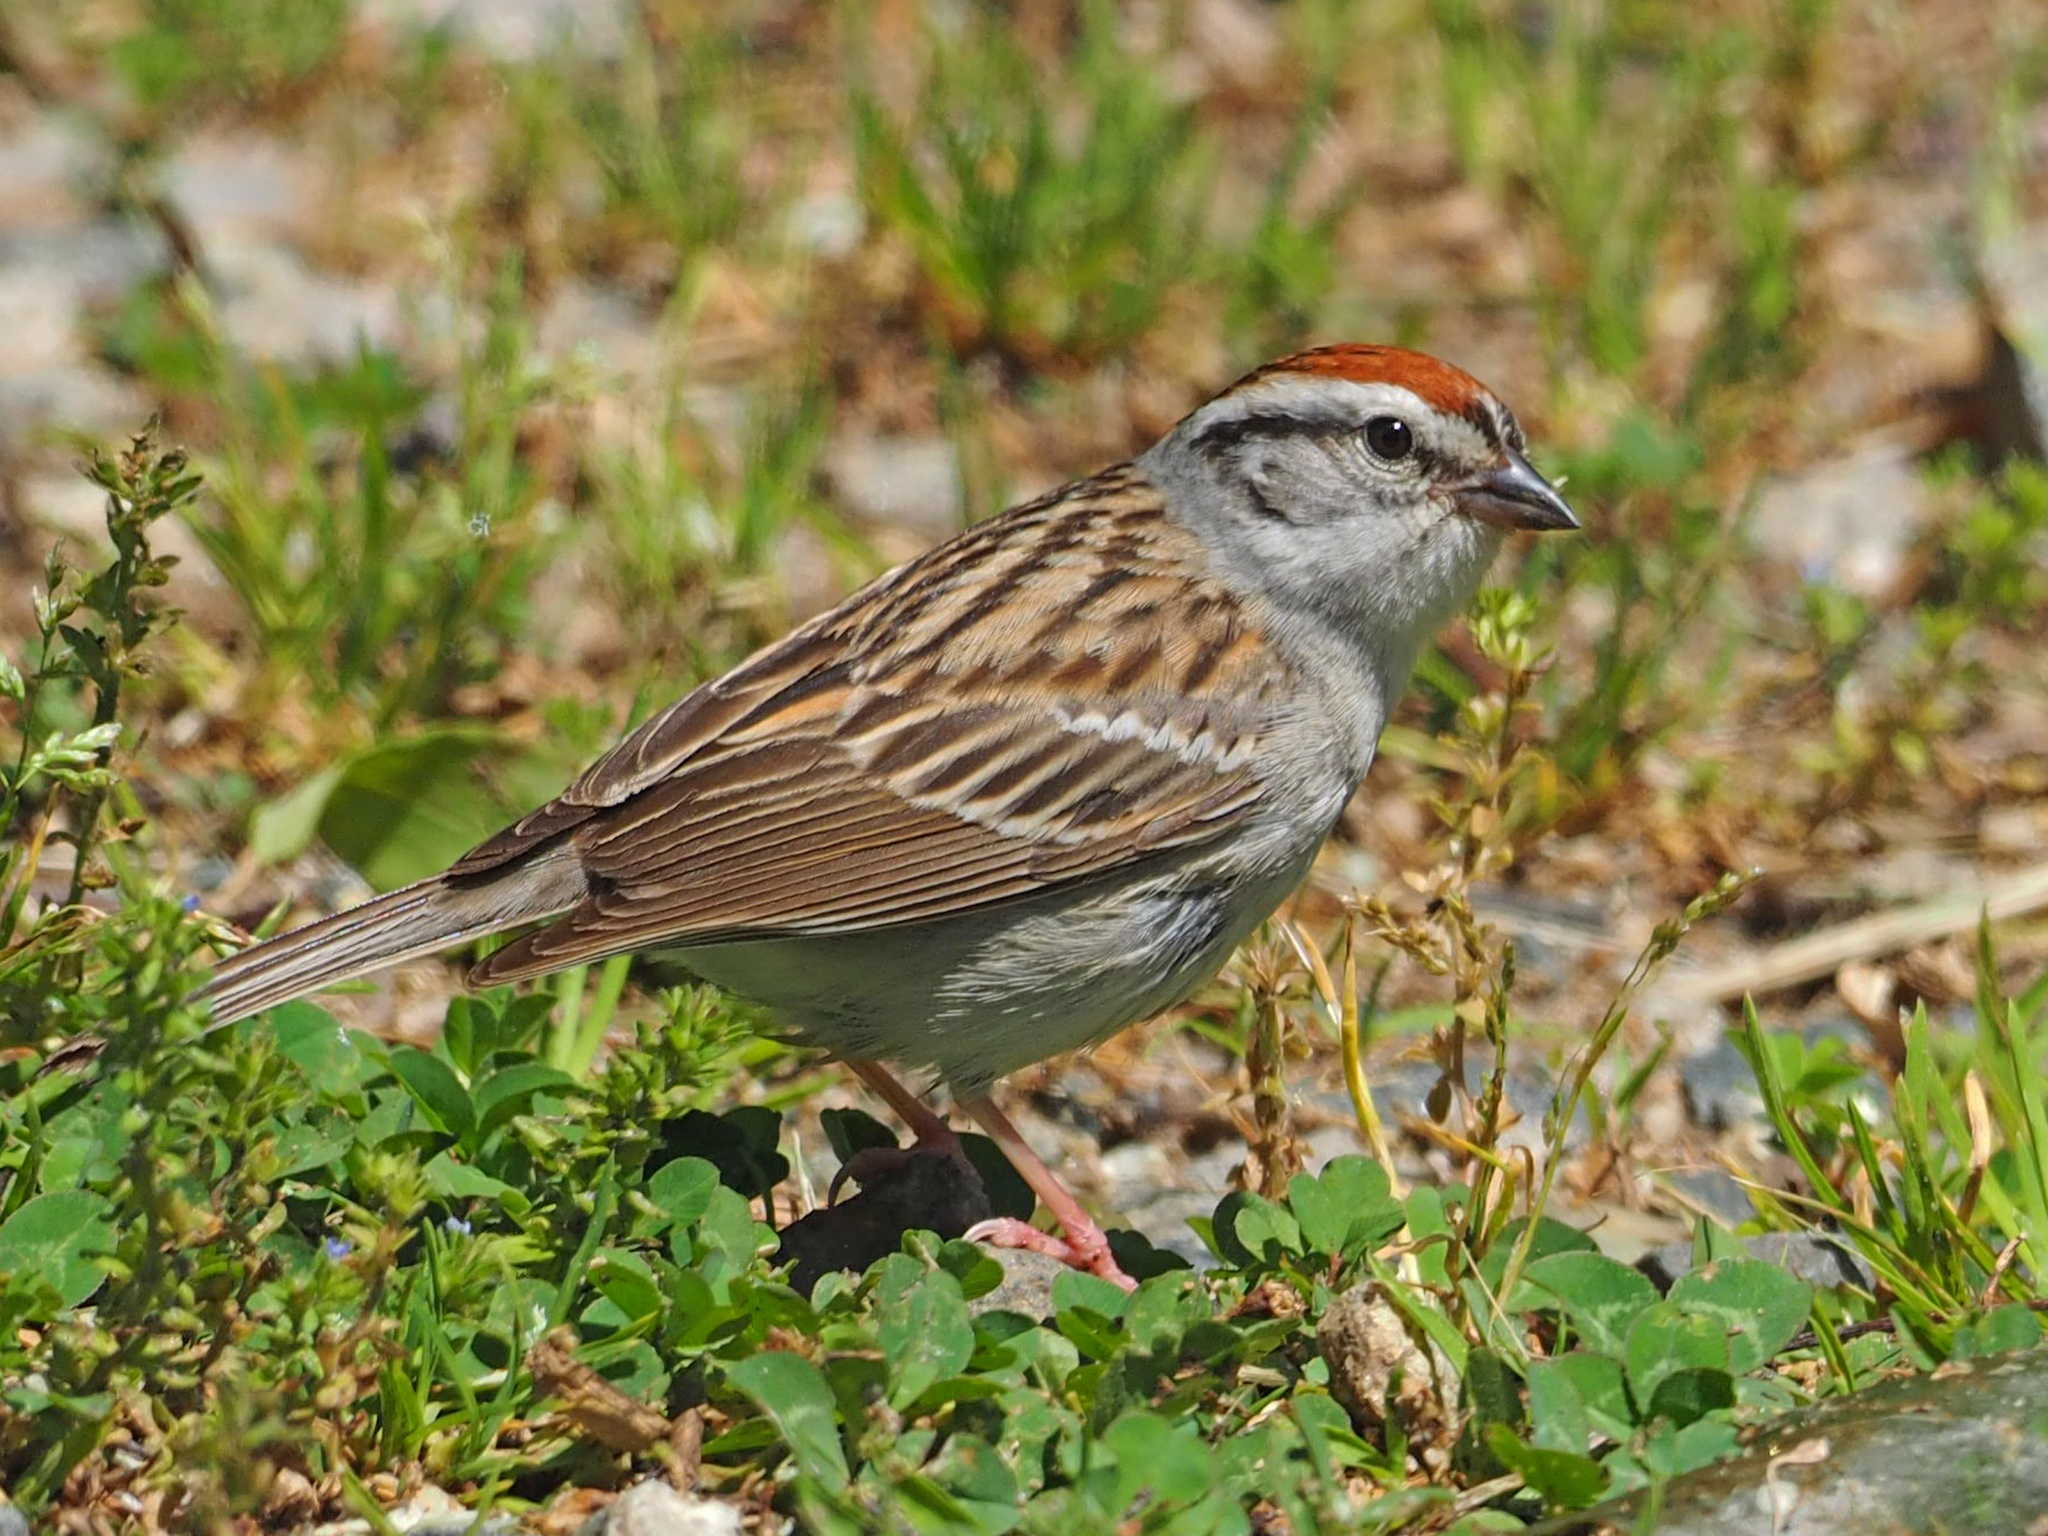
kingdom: Animalia
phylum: Chordata
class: Aves
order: Passeriformes
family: Passerellidae
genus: Spizella
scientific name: Spizella passerina
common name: Chipping sparrow
